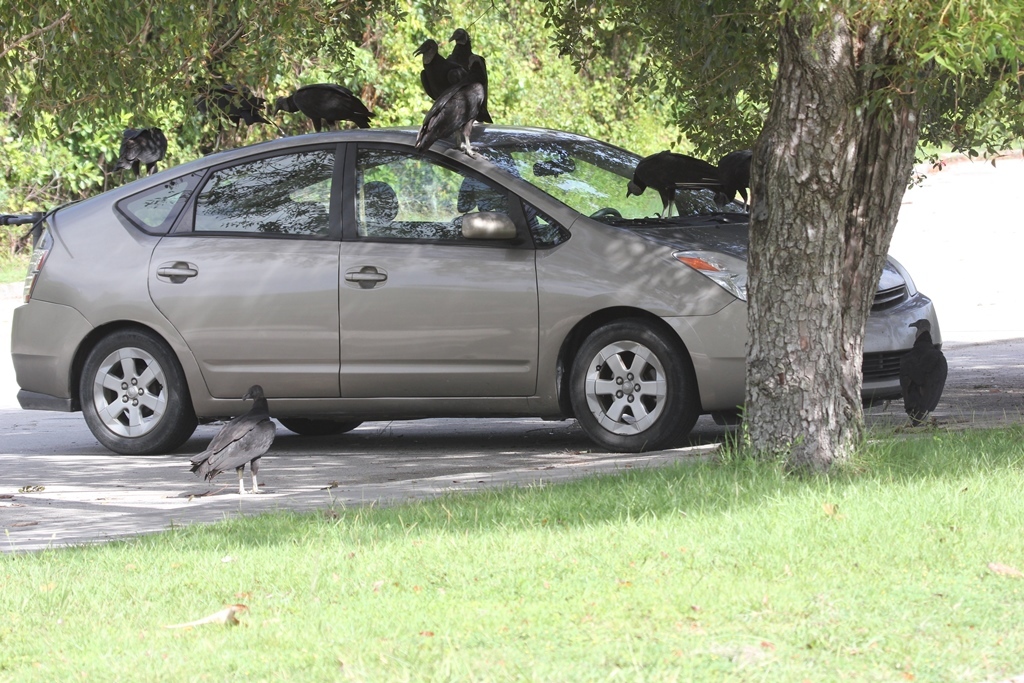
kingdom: Animalia
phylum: Chordata
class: Aves
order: Accipitriformes
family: Cathartidae
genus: Coragyps
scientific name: Coragyps atratus
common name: Black vulture
